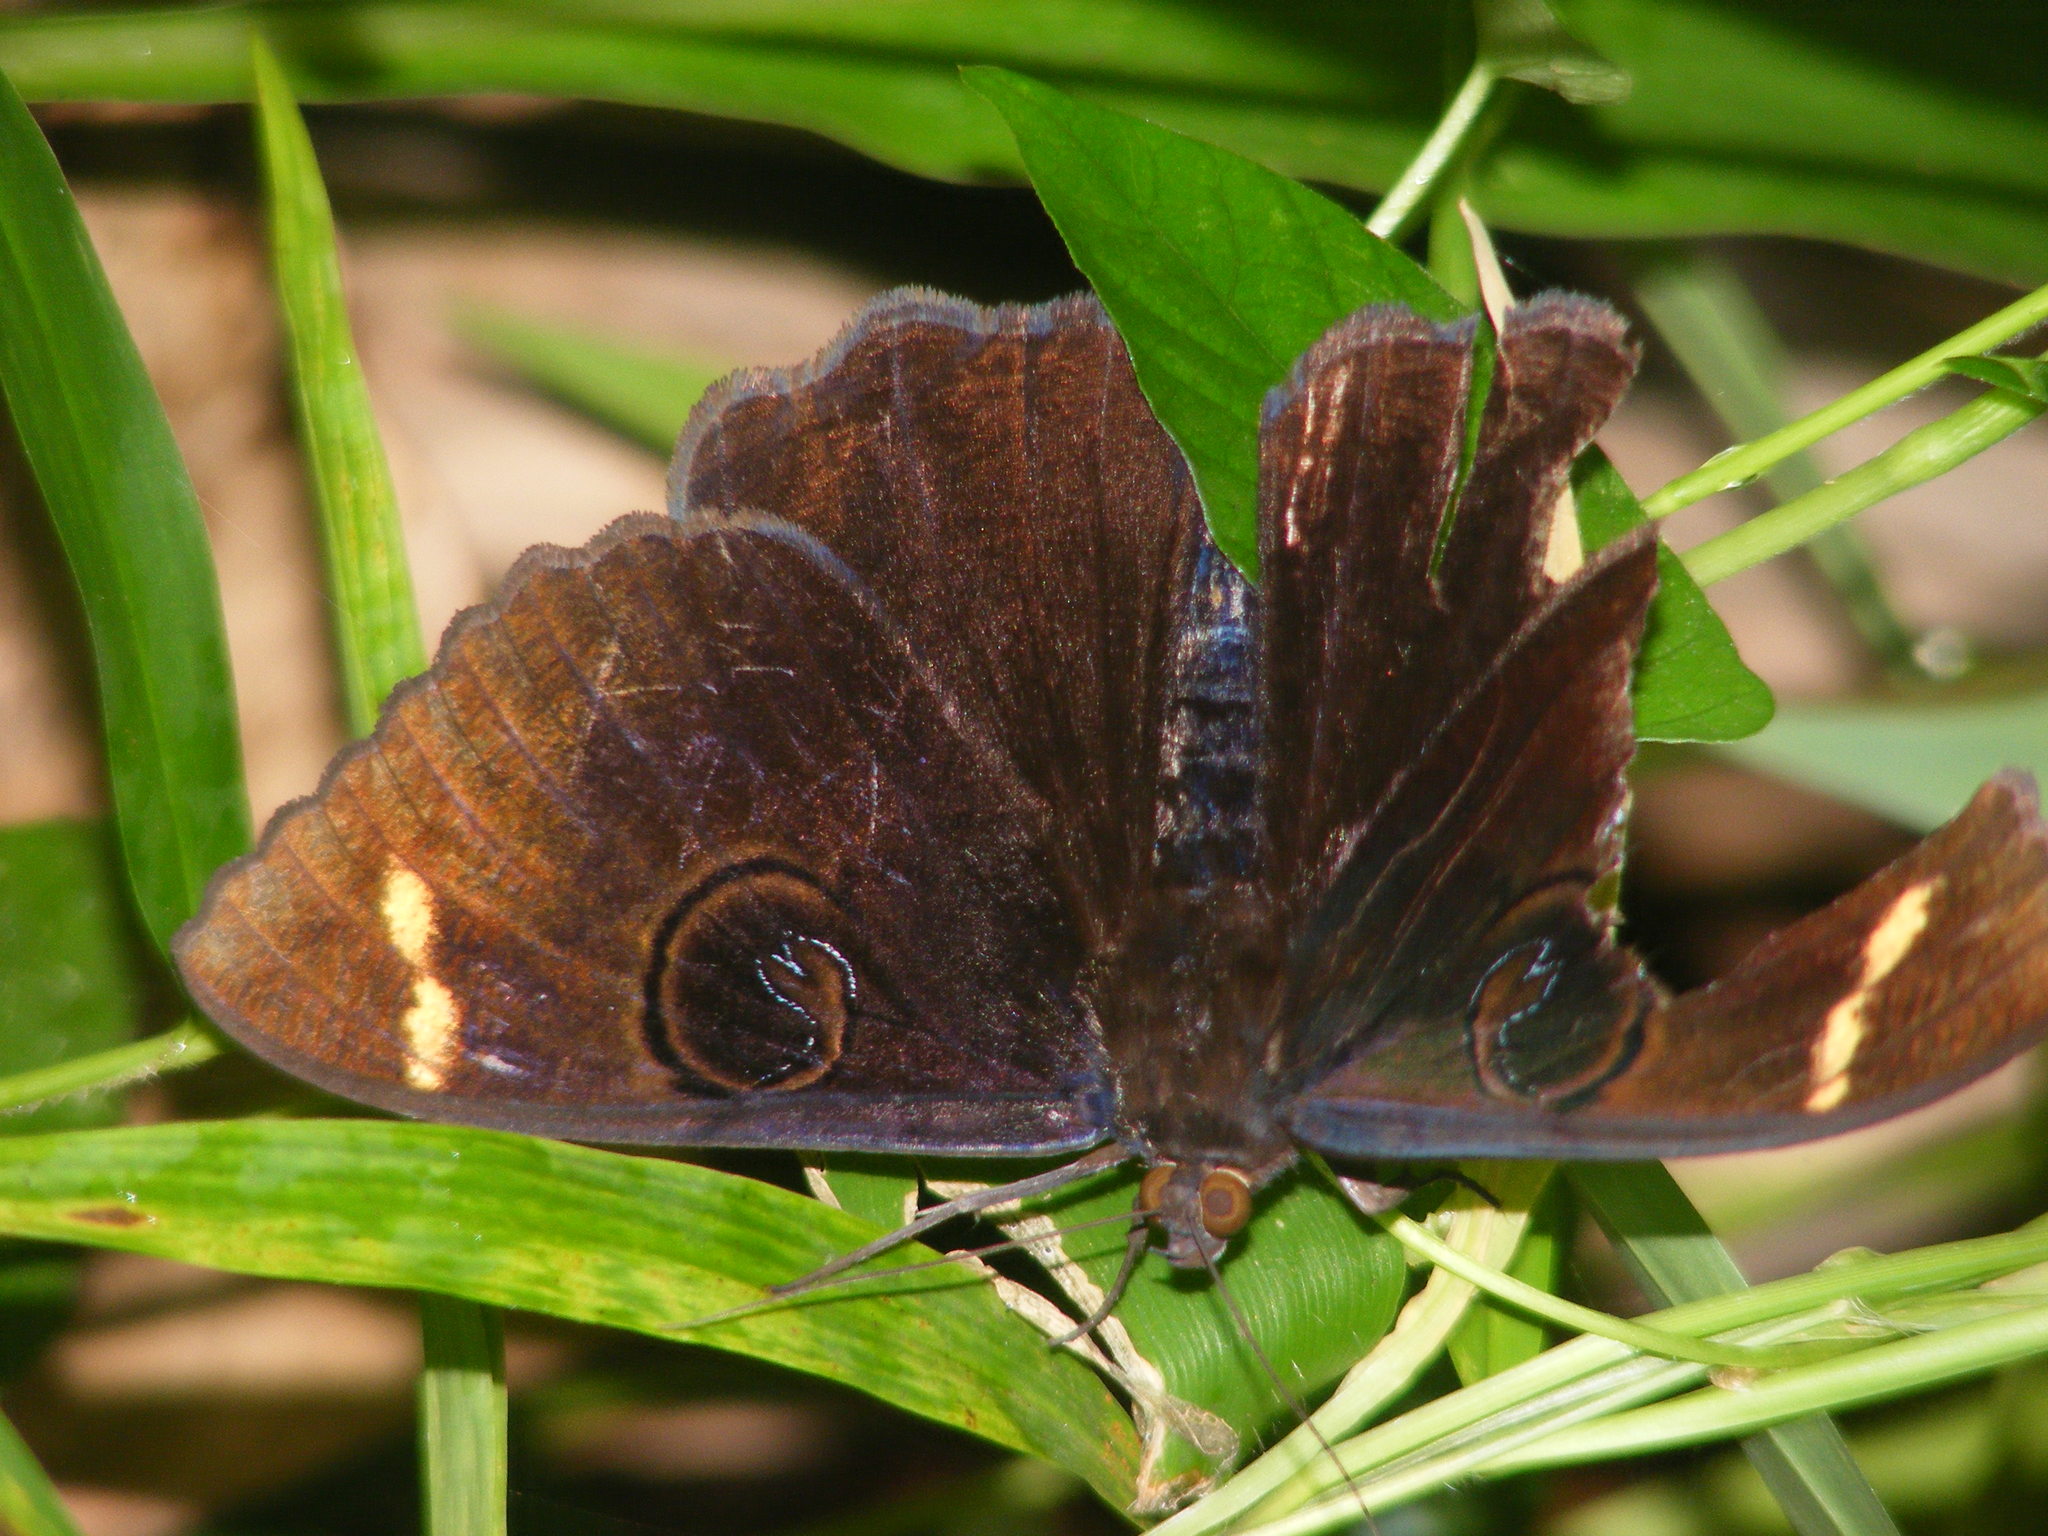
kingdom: Animalia
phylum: Arthropoda
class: Insecta
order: Lepidoptera
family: Erebidae
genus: Erebus
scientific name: Erebus hieroglyphica
